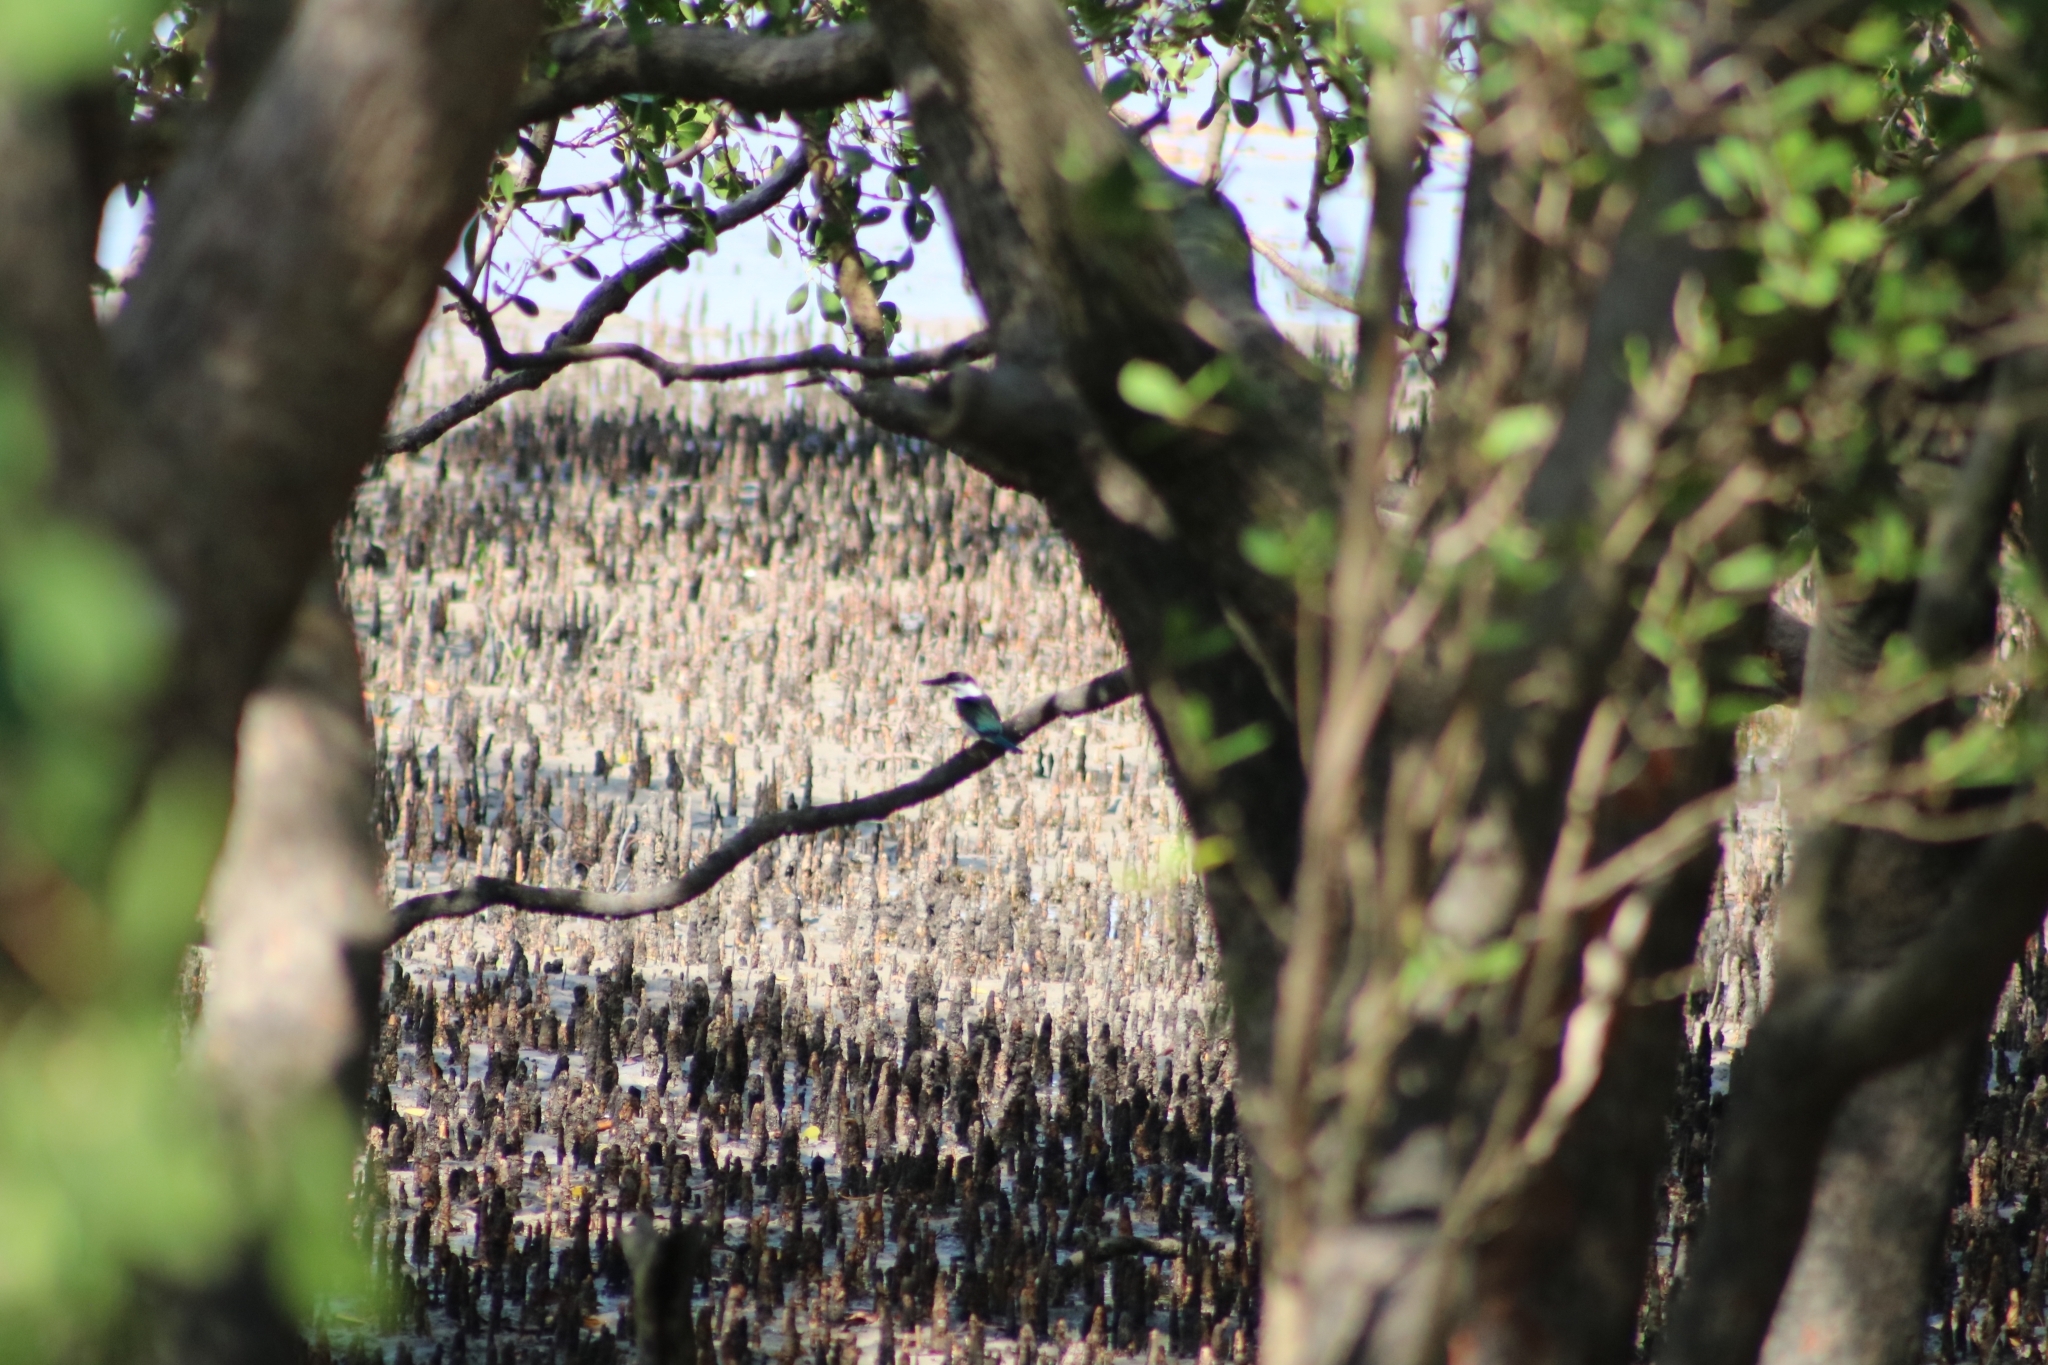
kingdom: Animalia
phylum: Chordata
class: Aves
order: Coraciiformes
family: Alcedinidae
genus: Todiramphus
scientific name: Todiramphus sordidus
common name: Torresian kingfisher
